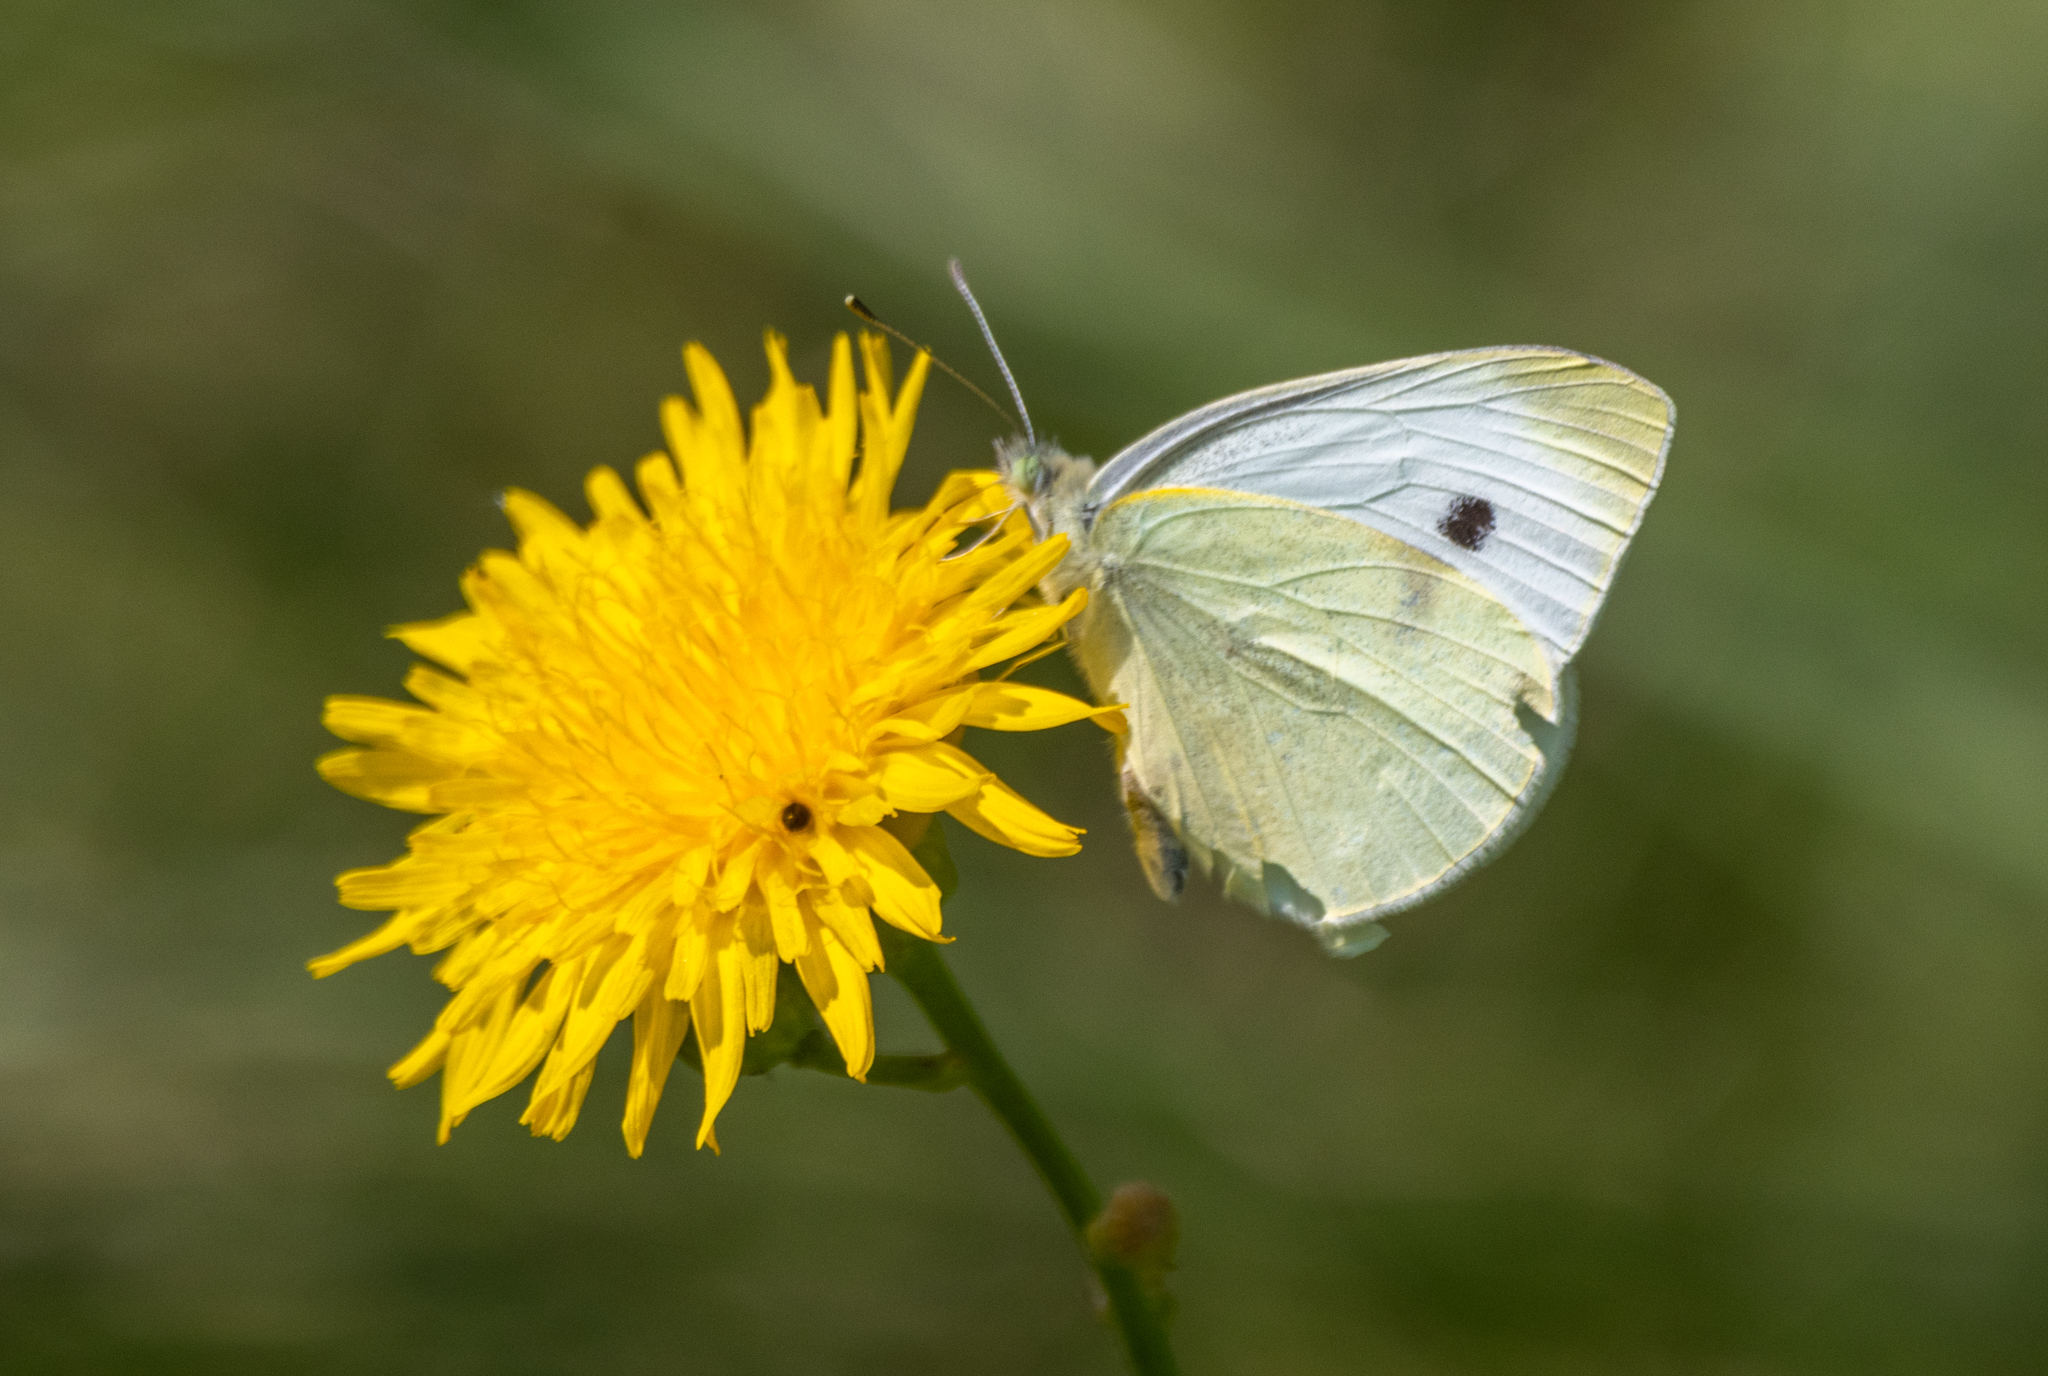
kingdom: Animalia
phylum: Arthropoda
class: Insecta
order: Lepidoptera
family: Pieridae
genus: Pieris
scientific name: Pieris rapae
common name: Small white
